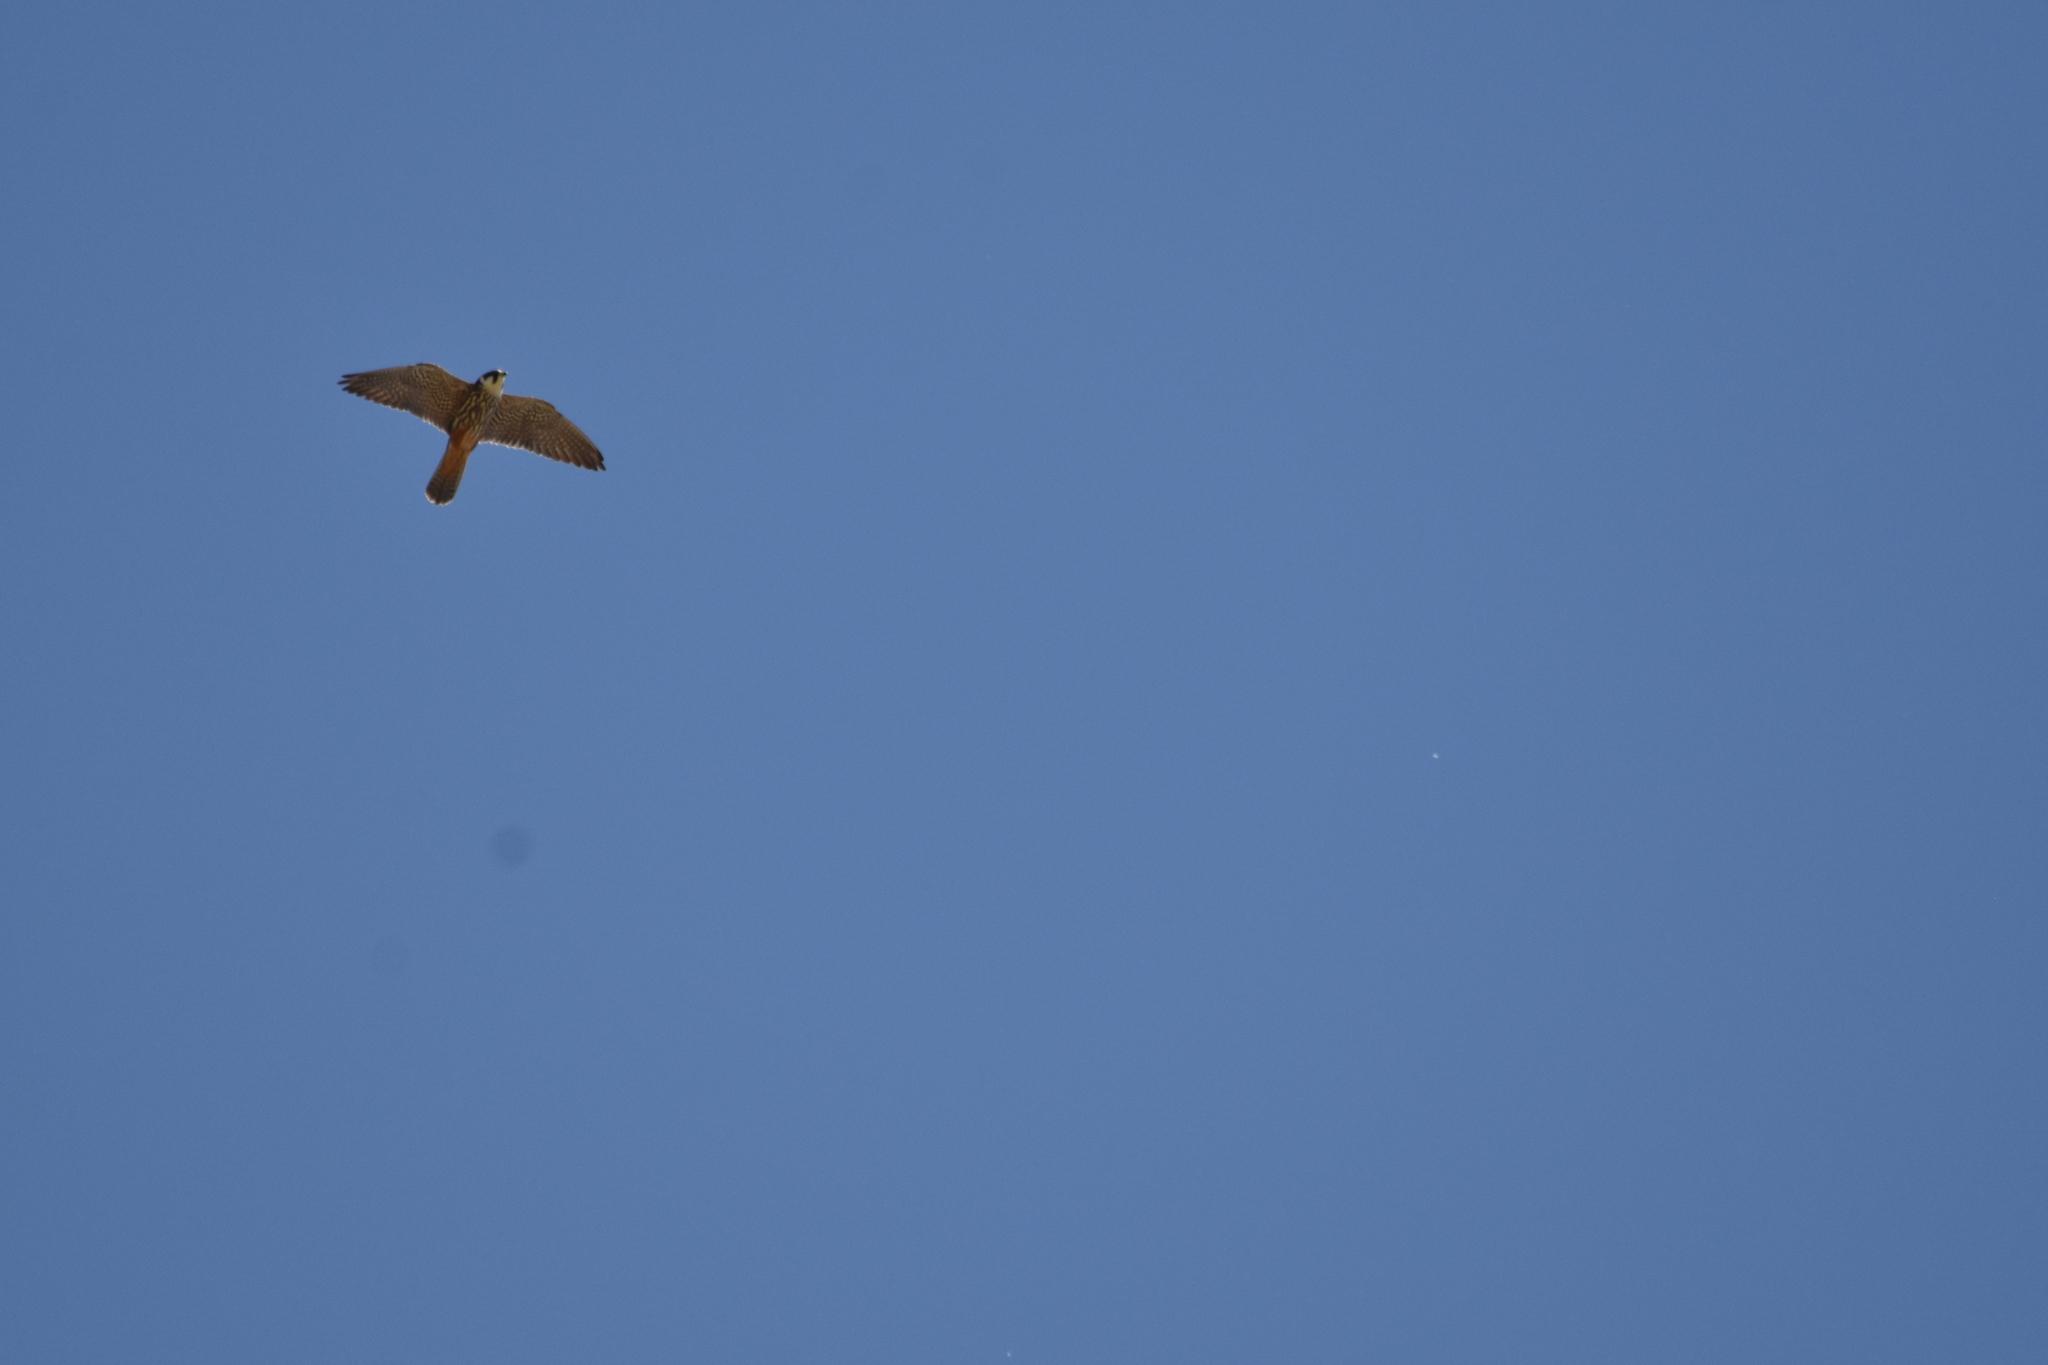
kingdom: Animalia
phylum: Chordata
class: Aves
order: Falconiformes
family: Falconidae
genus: Falco
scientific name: Falco subbuteo
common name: Eurasian hobby
